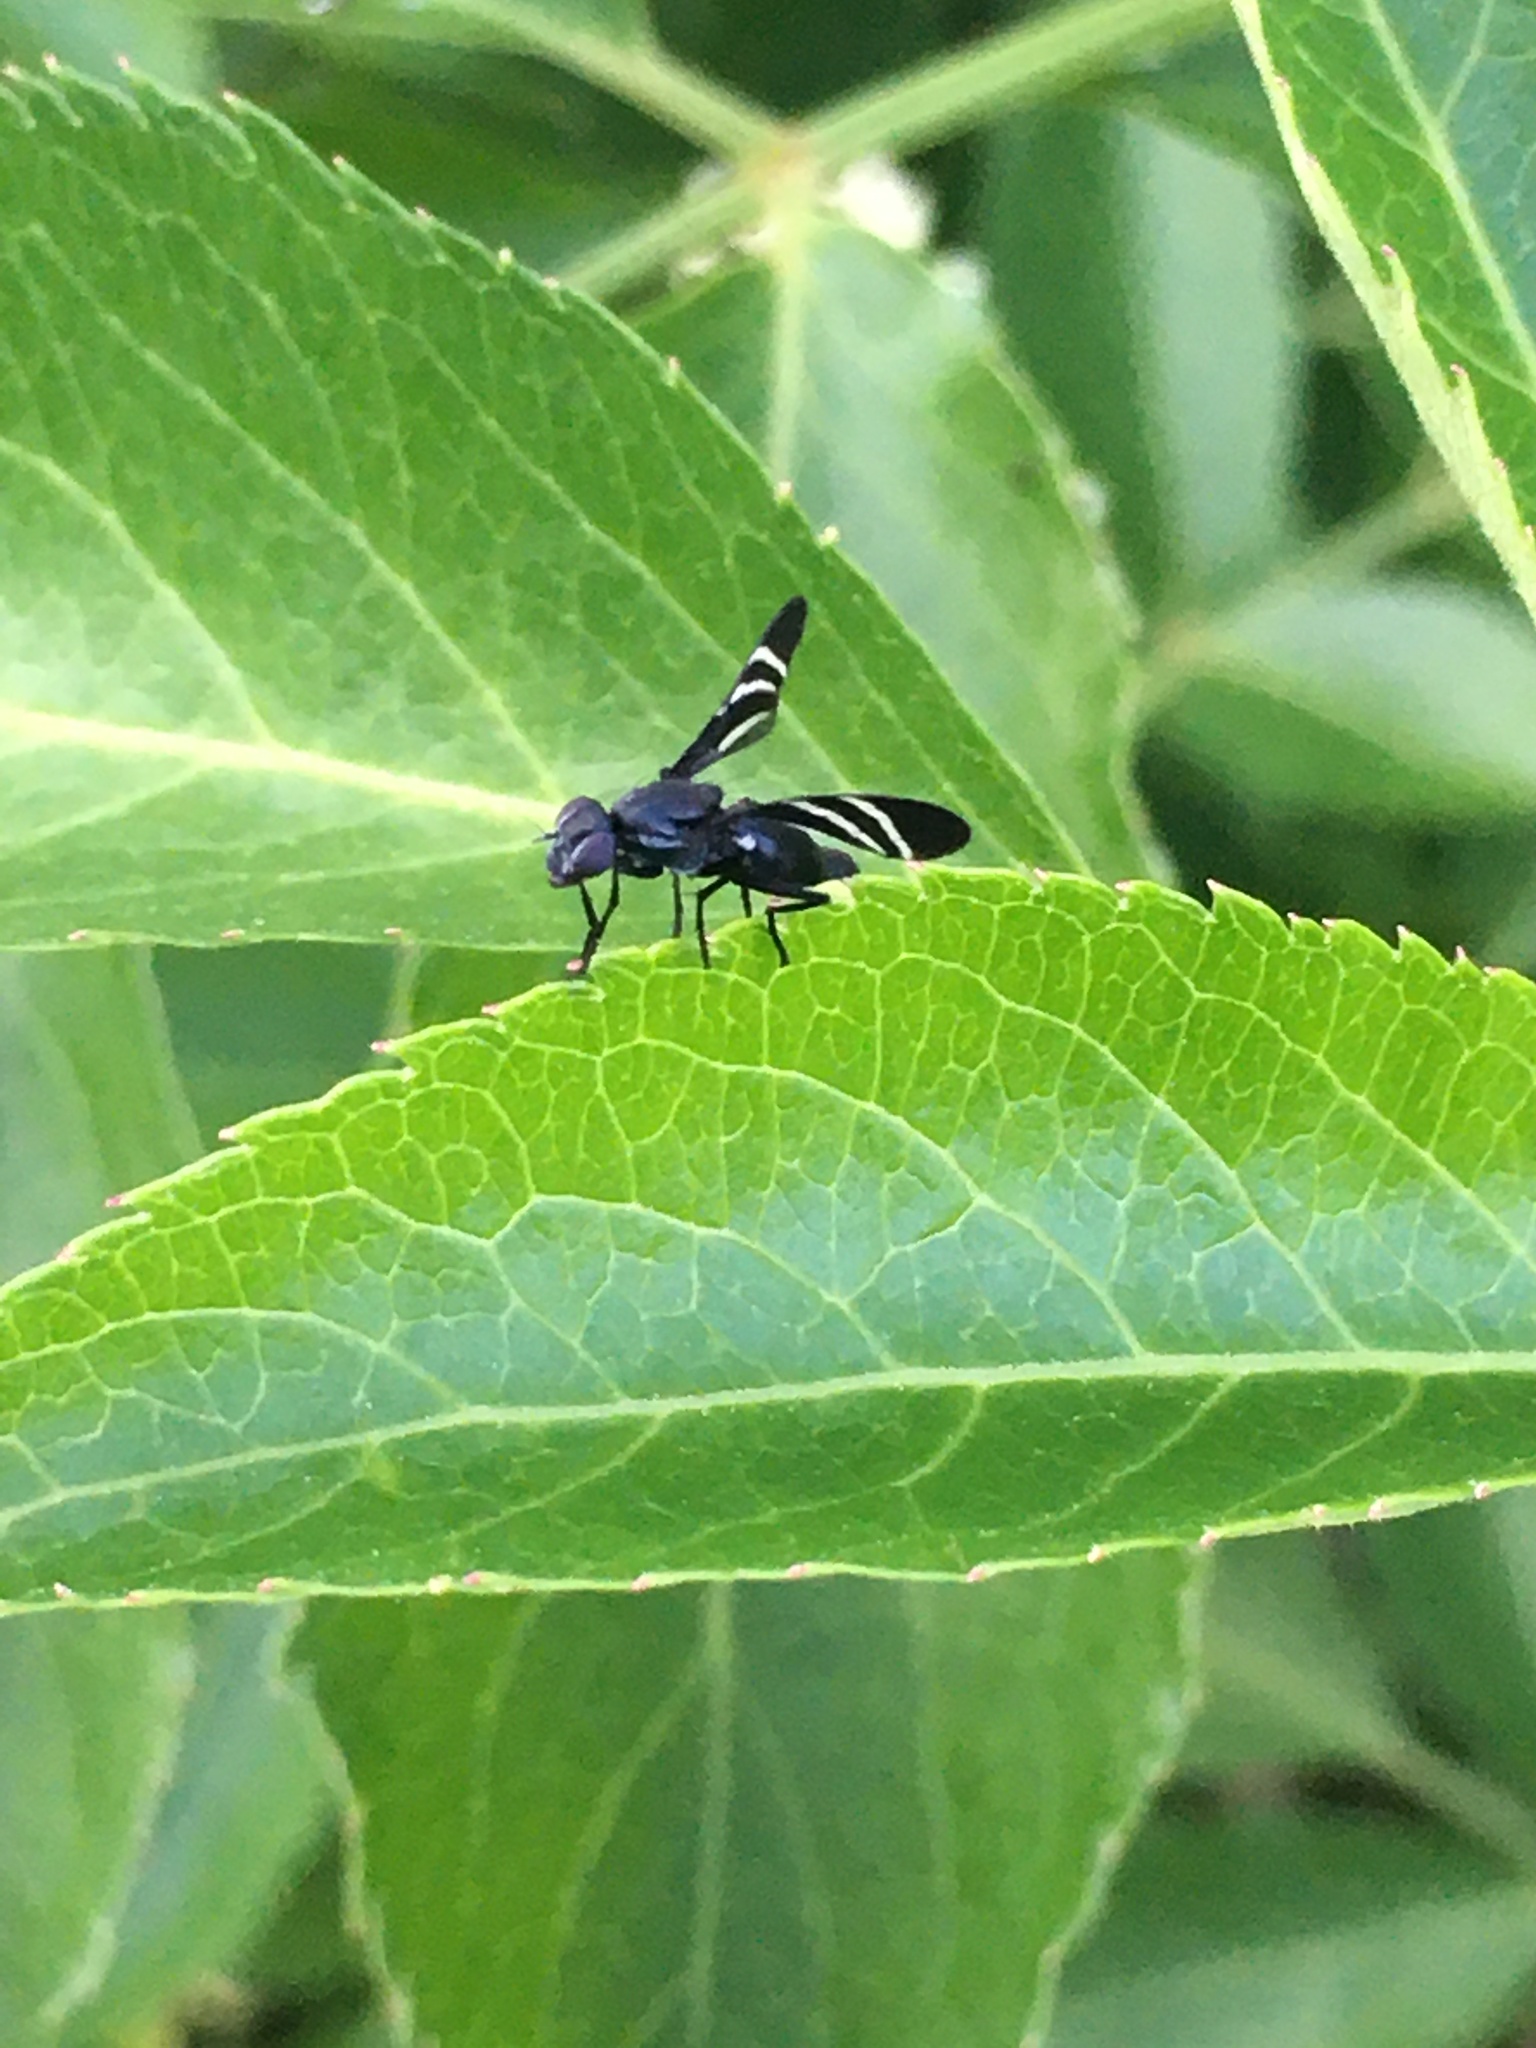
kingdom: Animalia
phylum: Arthropoda
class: Insecta
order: Diptera
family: Ulidiidae
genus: Tritoxa
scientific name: Tritoxa flexa
